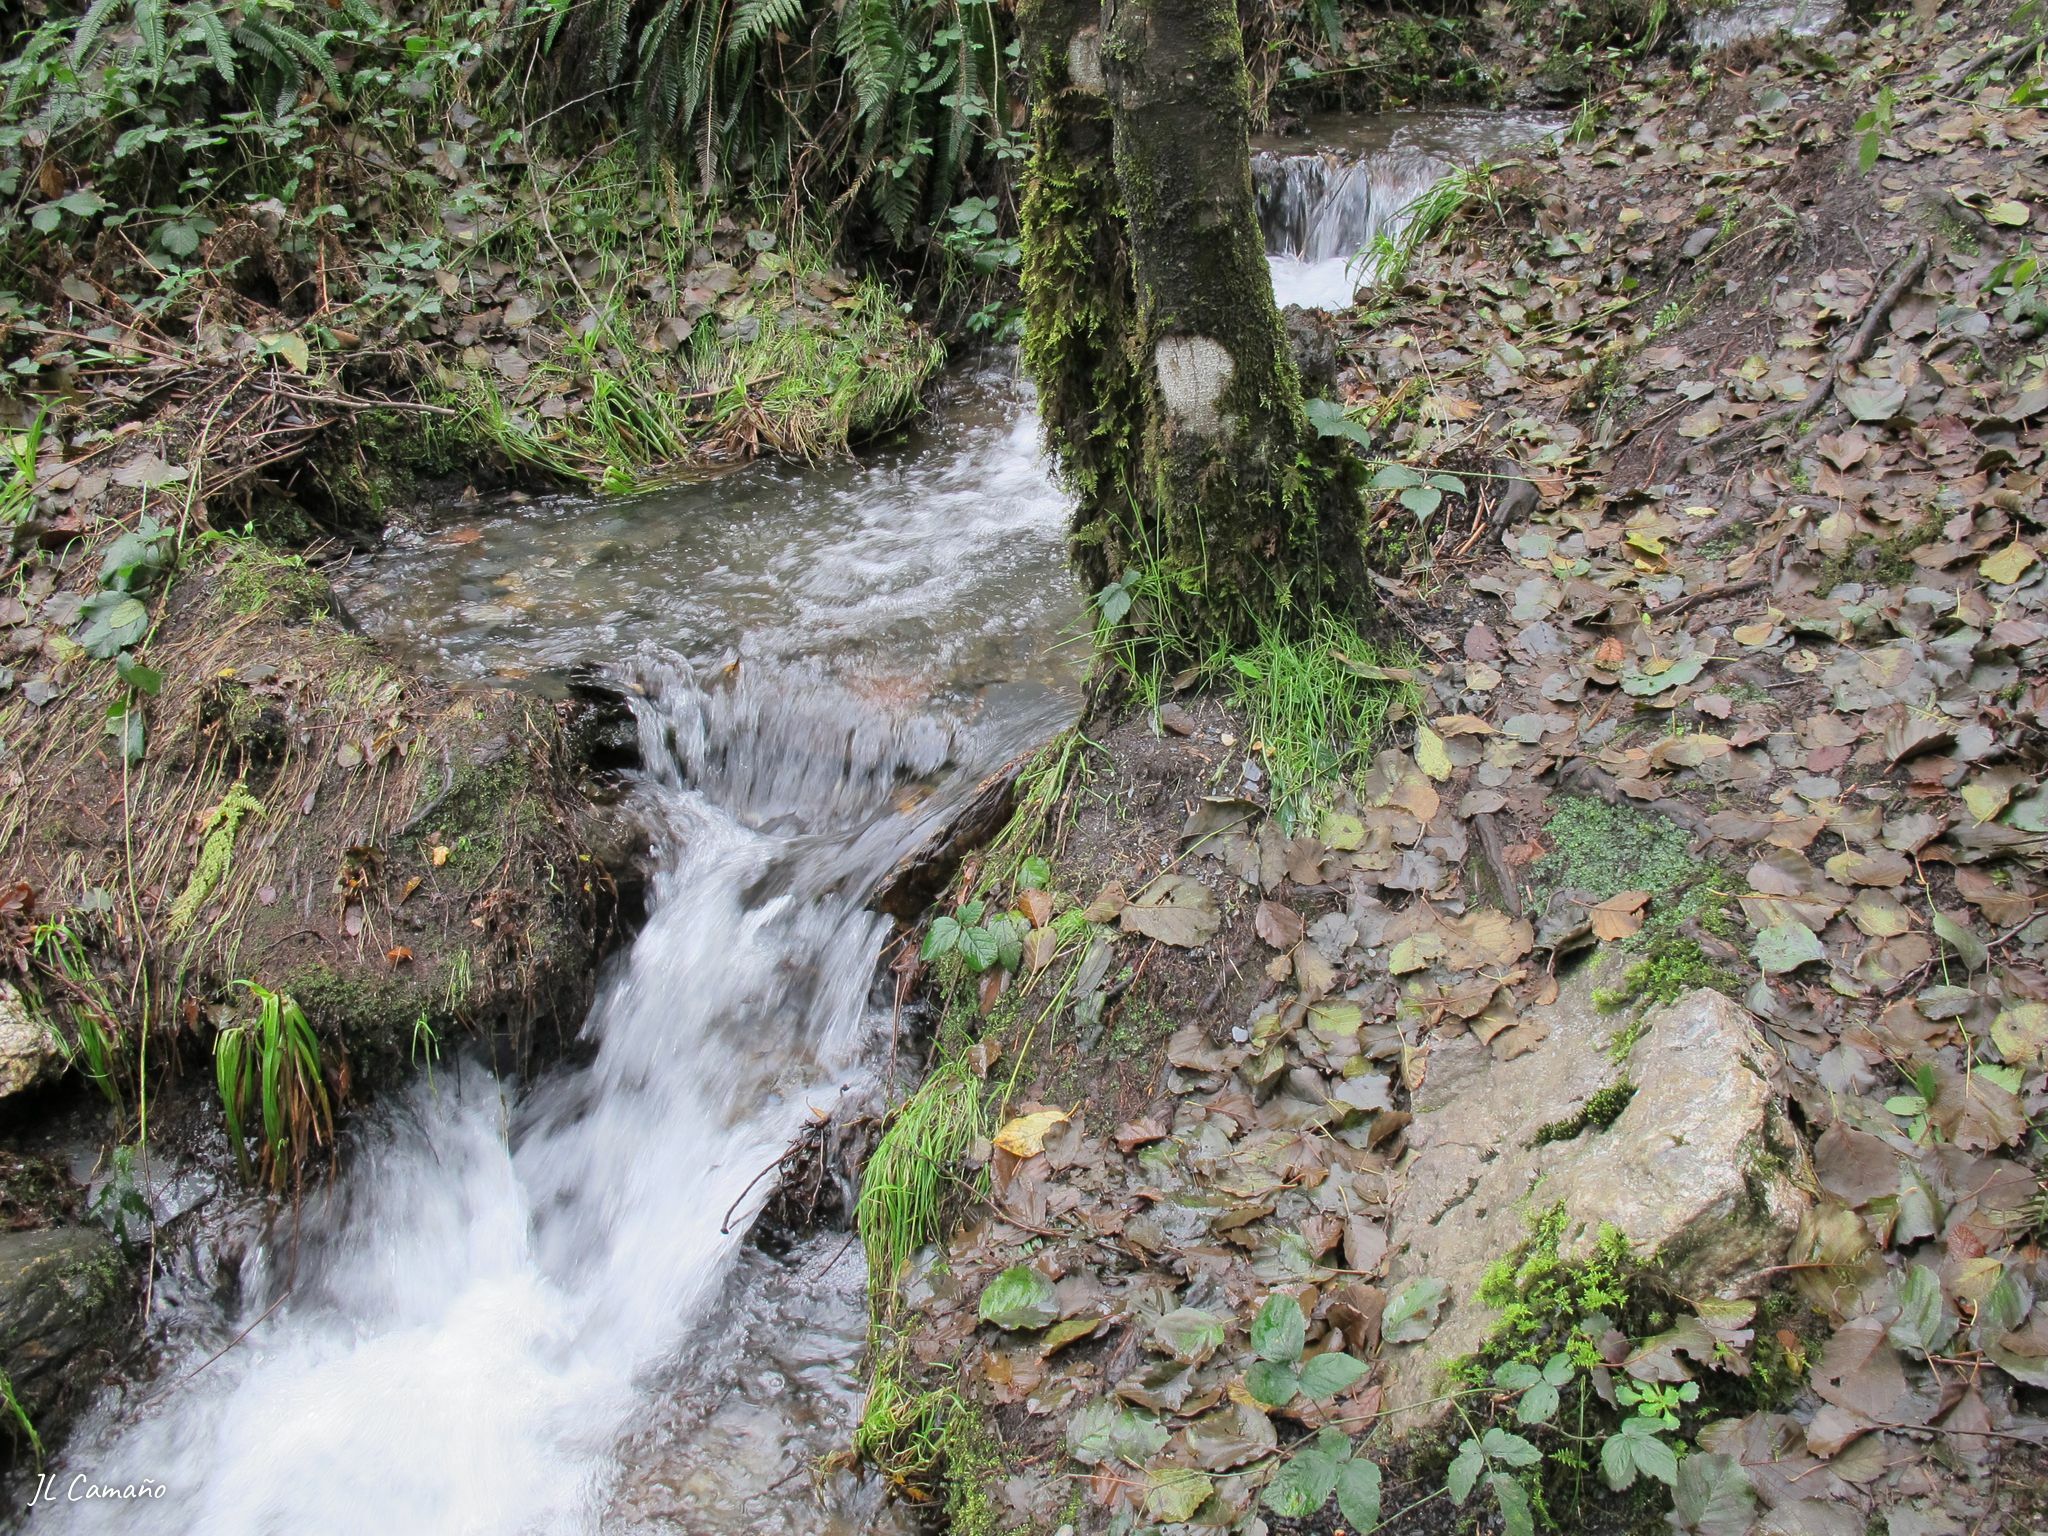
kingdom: Plantae
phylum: Bryophyta
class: Bryopsida
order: Grimmiales
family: Grimmiaceae
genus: Codriophorus
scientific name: Codriophorus acicularis
